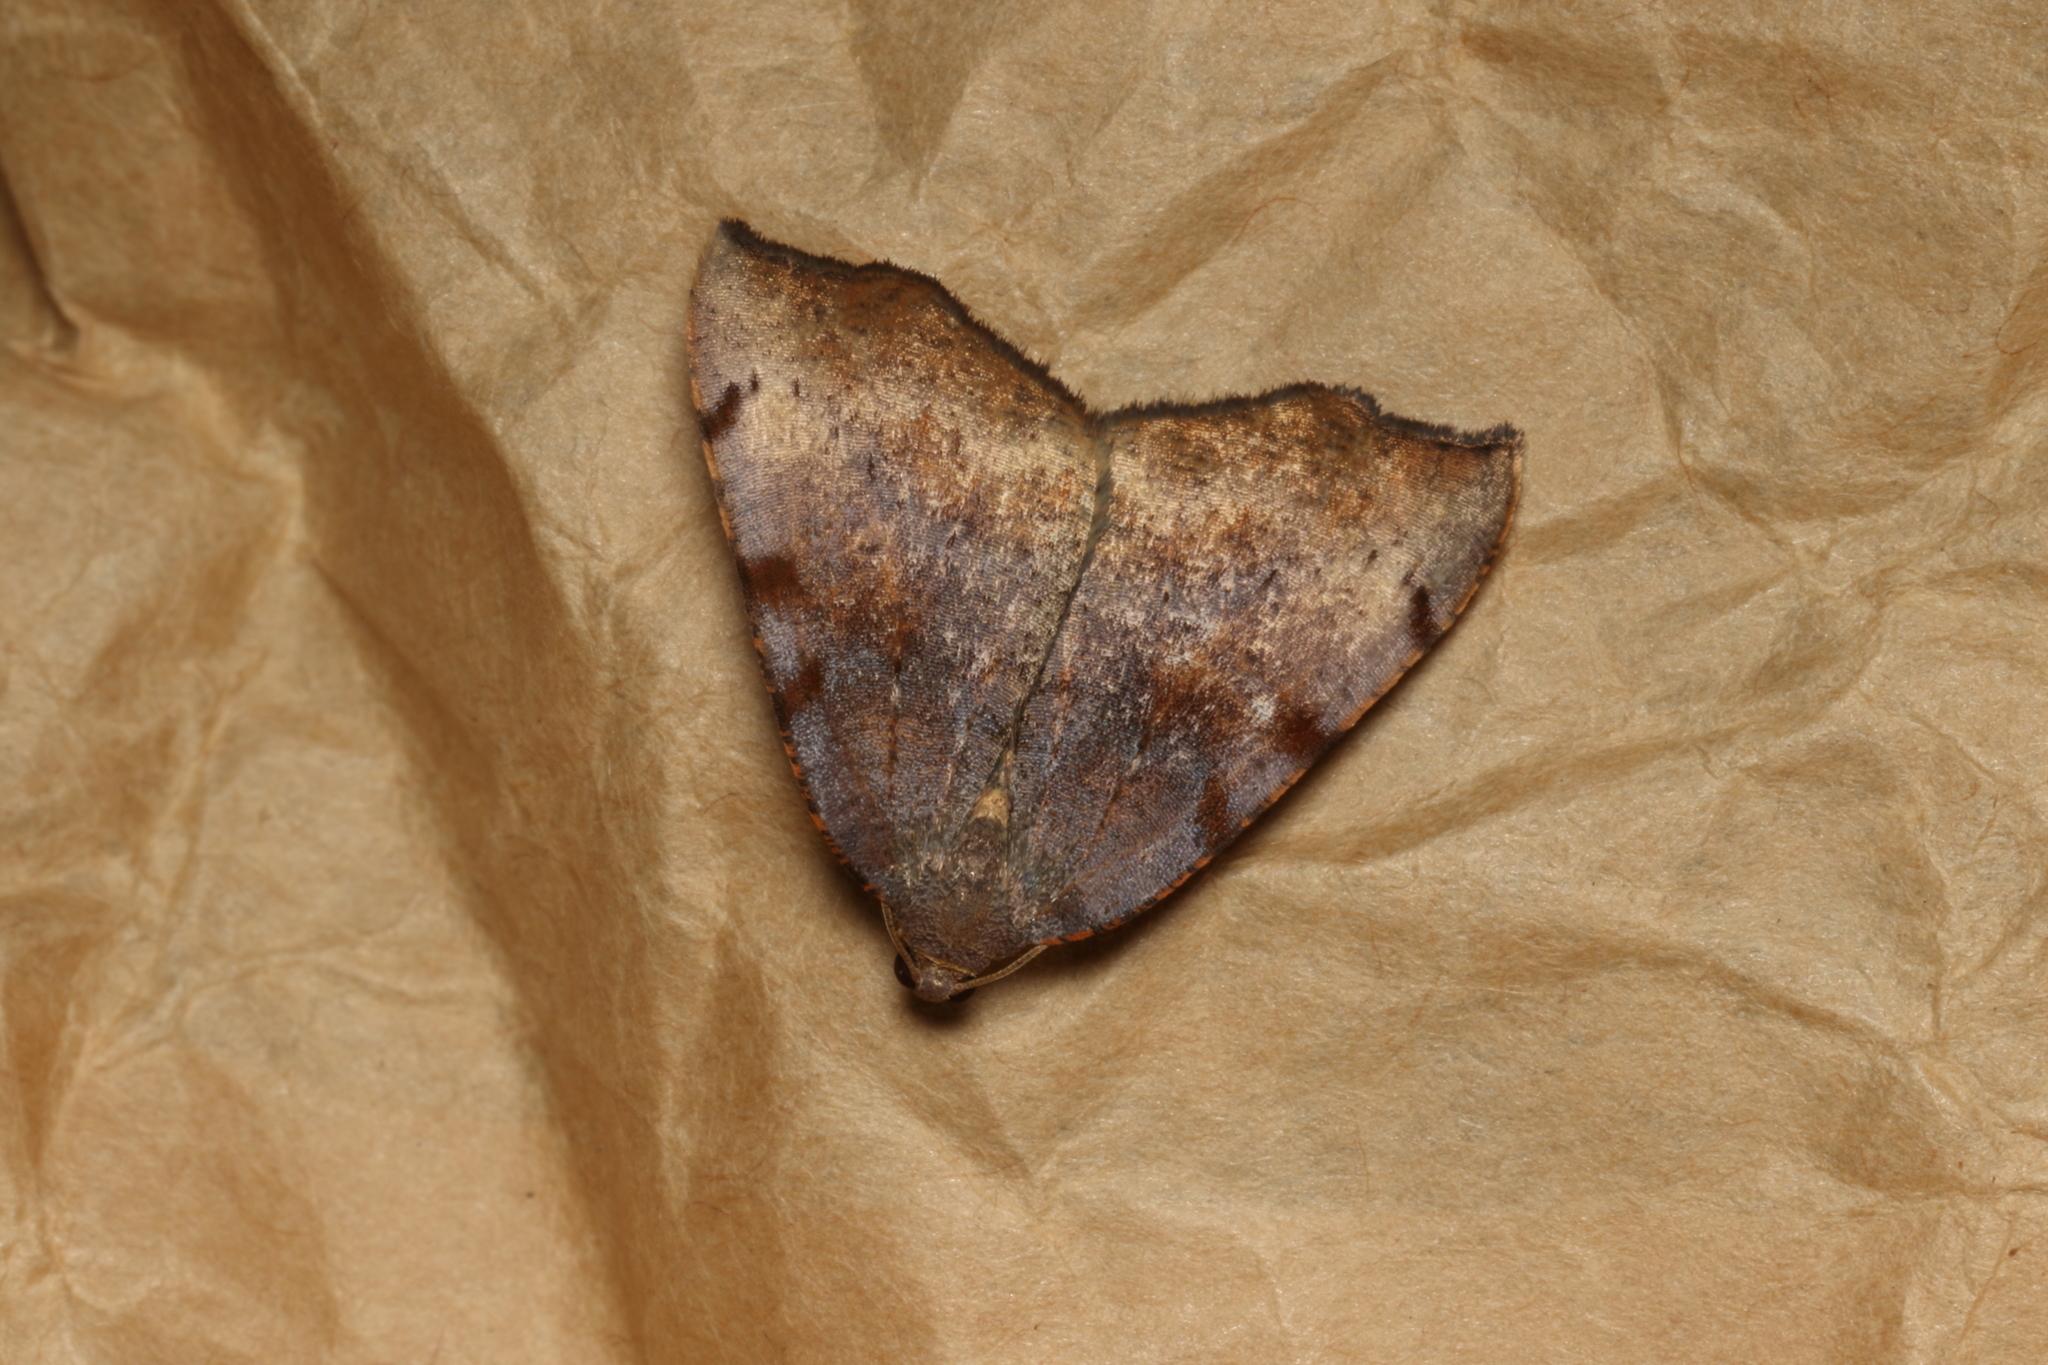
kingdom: Animalia
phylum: Arthropoda
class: Insecta
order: Lepidoptera
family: Geometridae
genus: Sestra
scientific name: Sestra flexata
